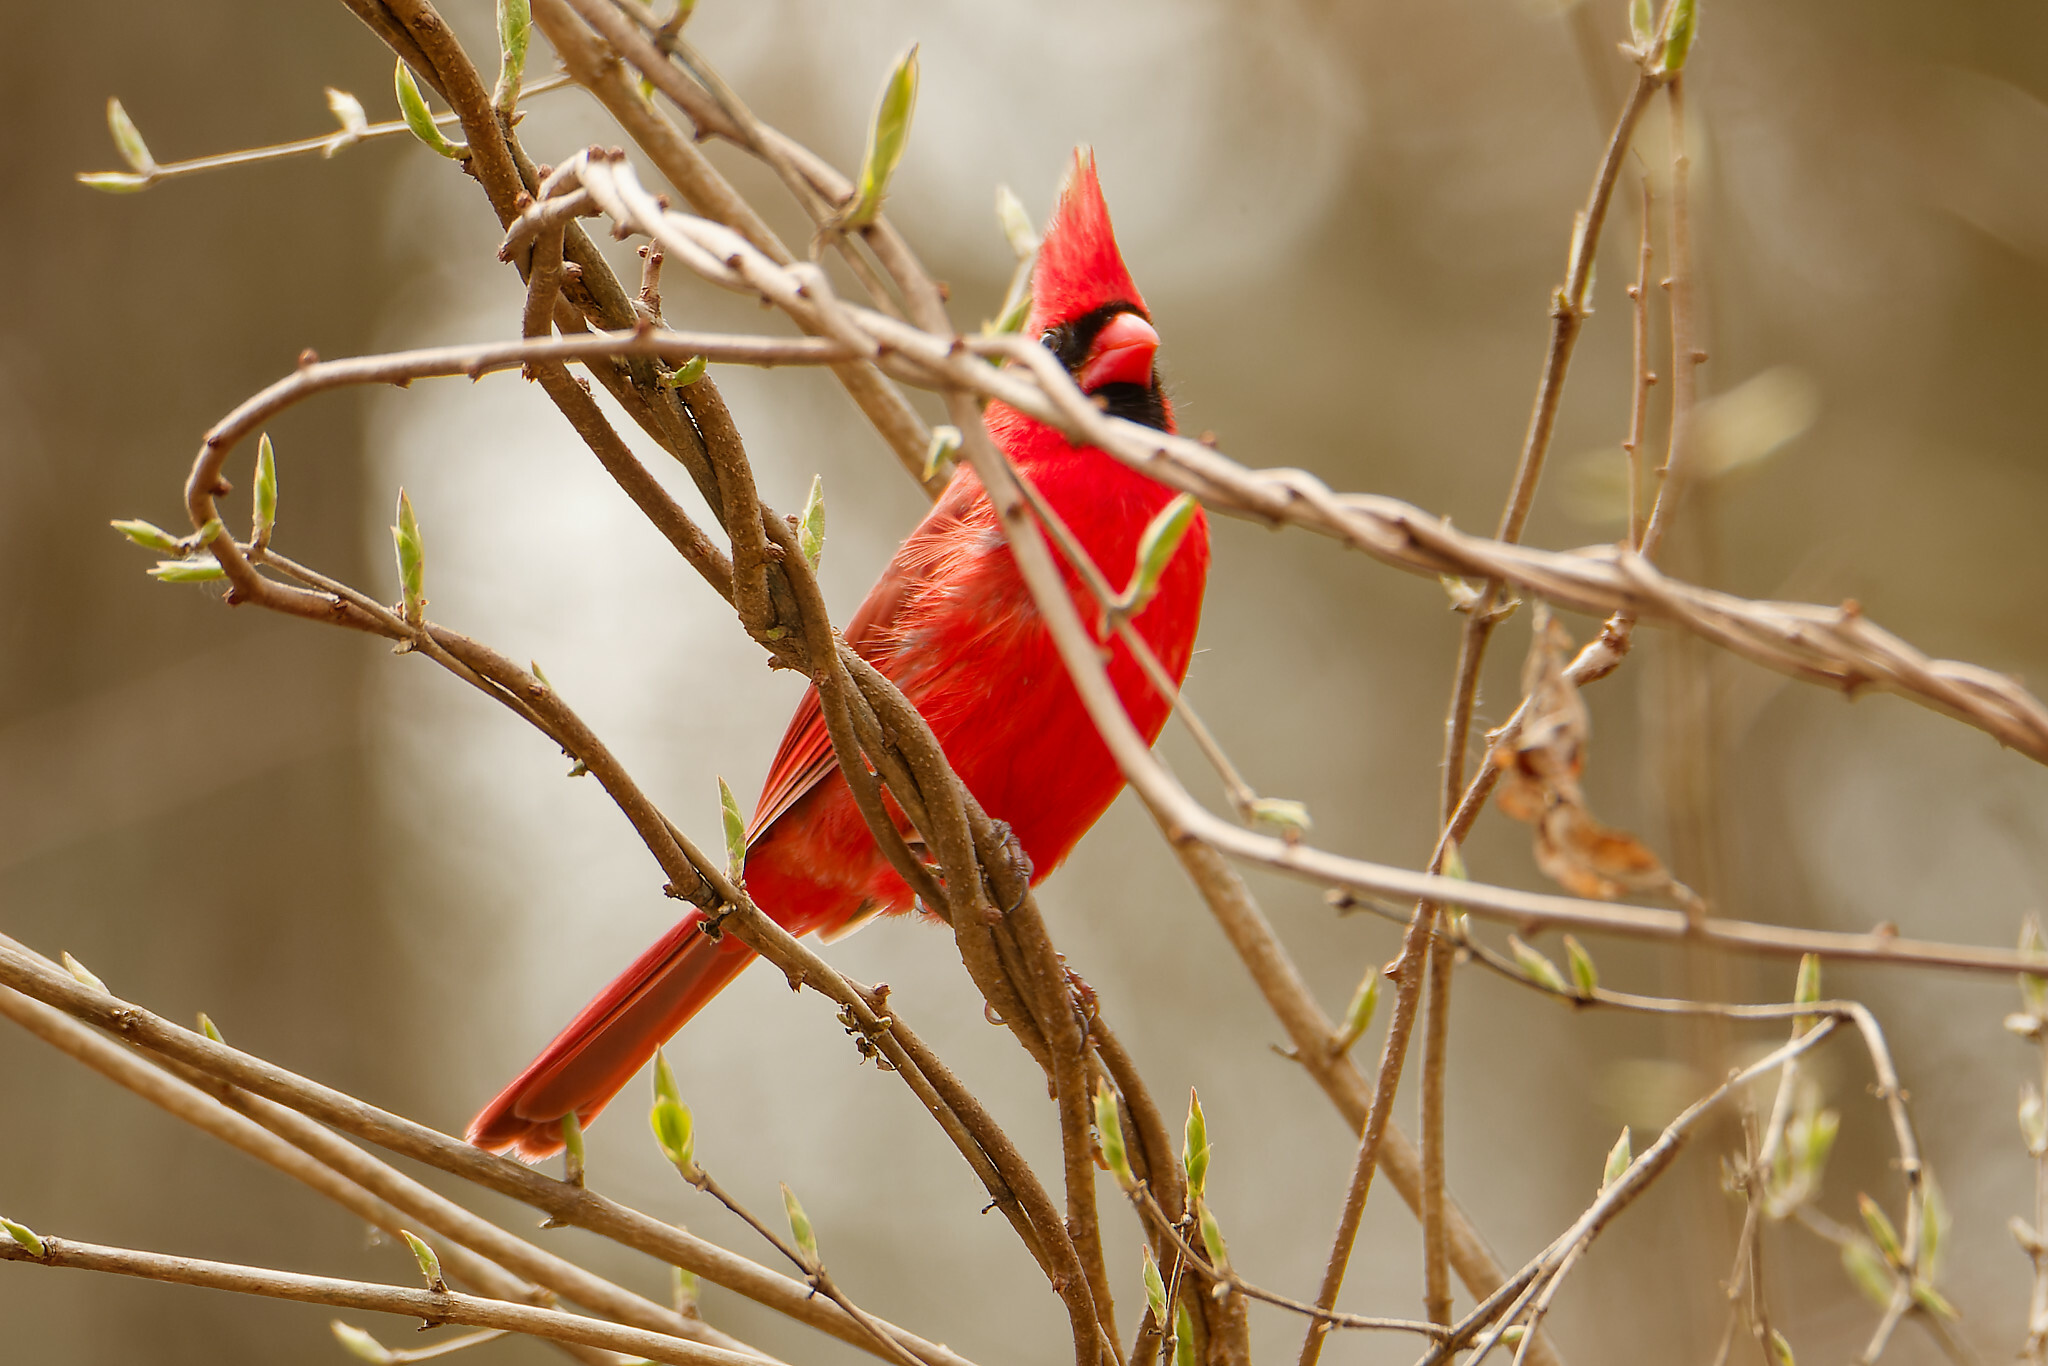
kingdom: Animalia
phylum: Chordata
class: Aves
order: Passeriformes
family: Cardinalidae
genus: Cardinalis
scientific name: Cardinalis cardinalis
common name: Northern cardinal
